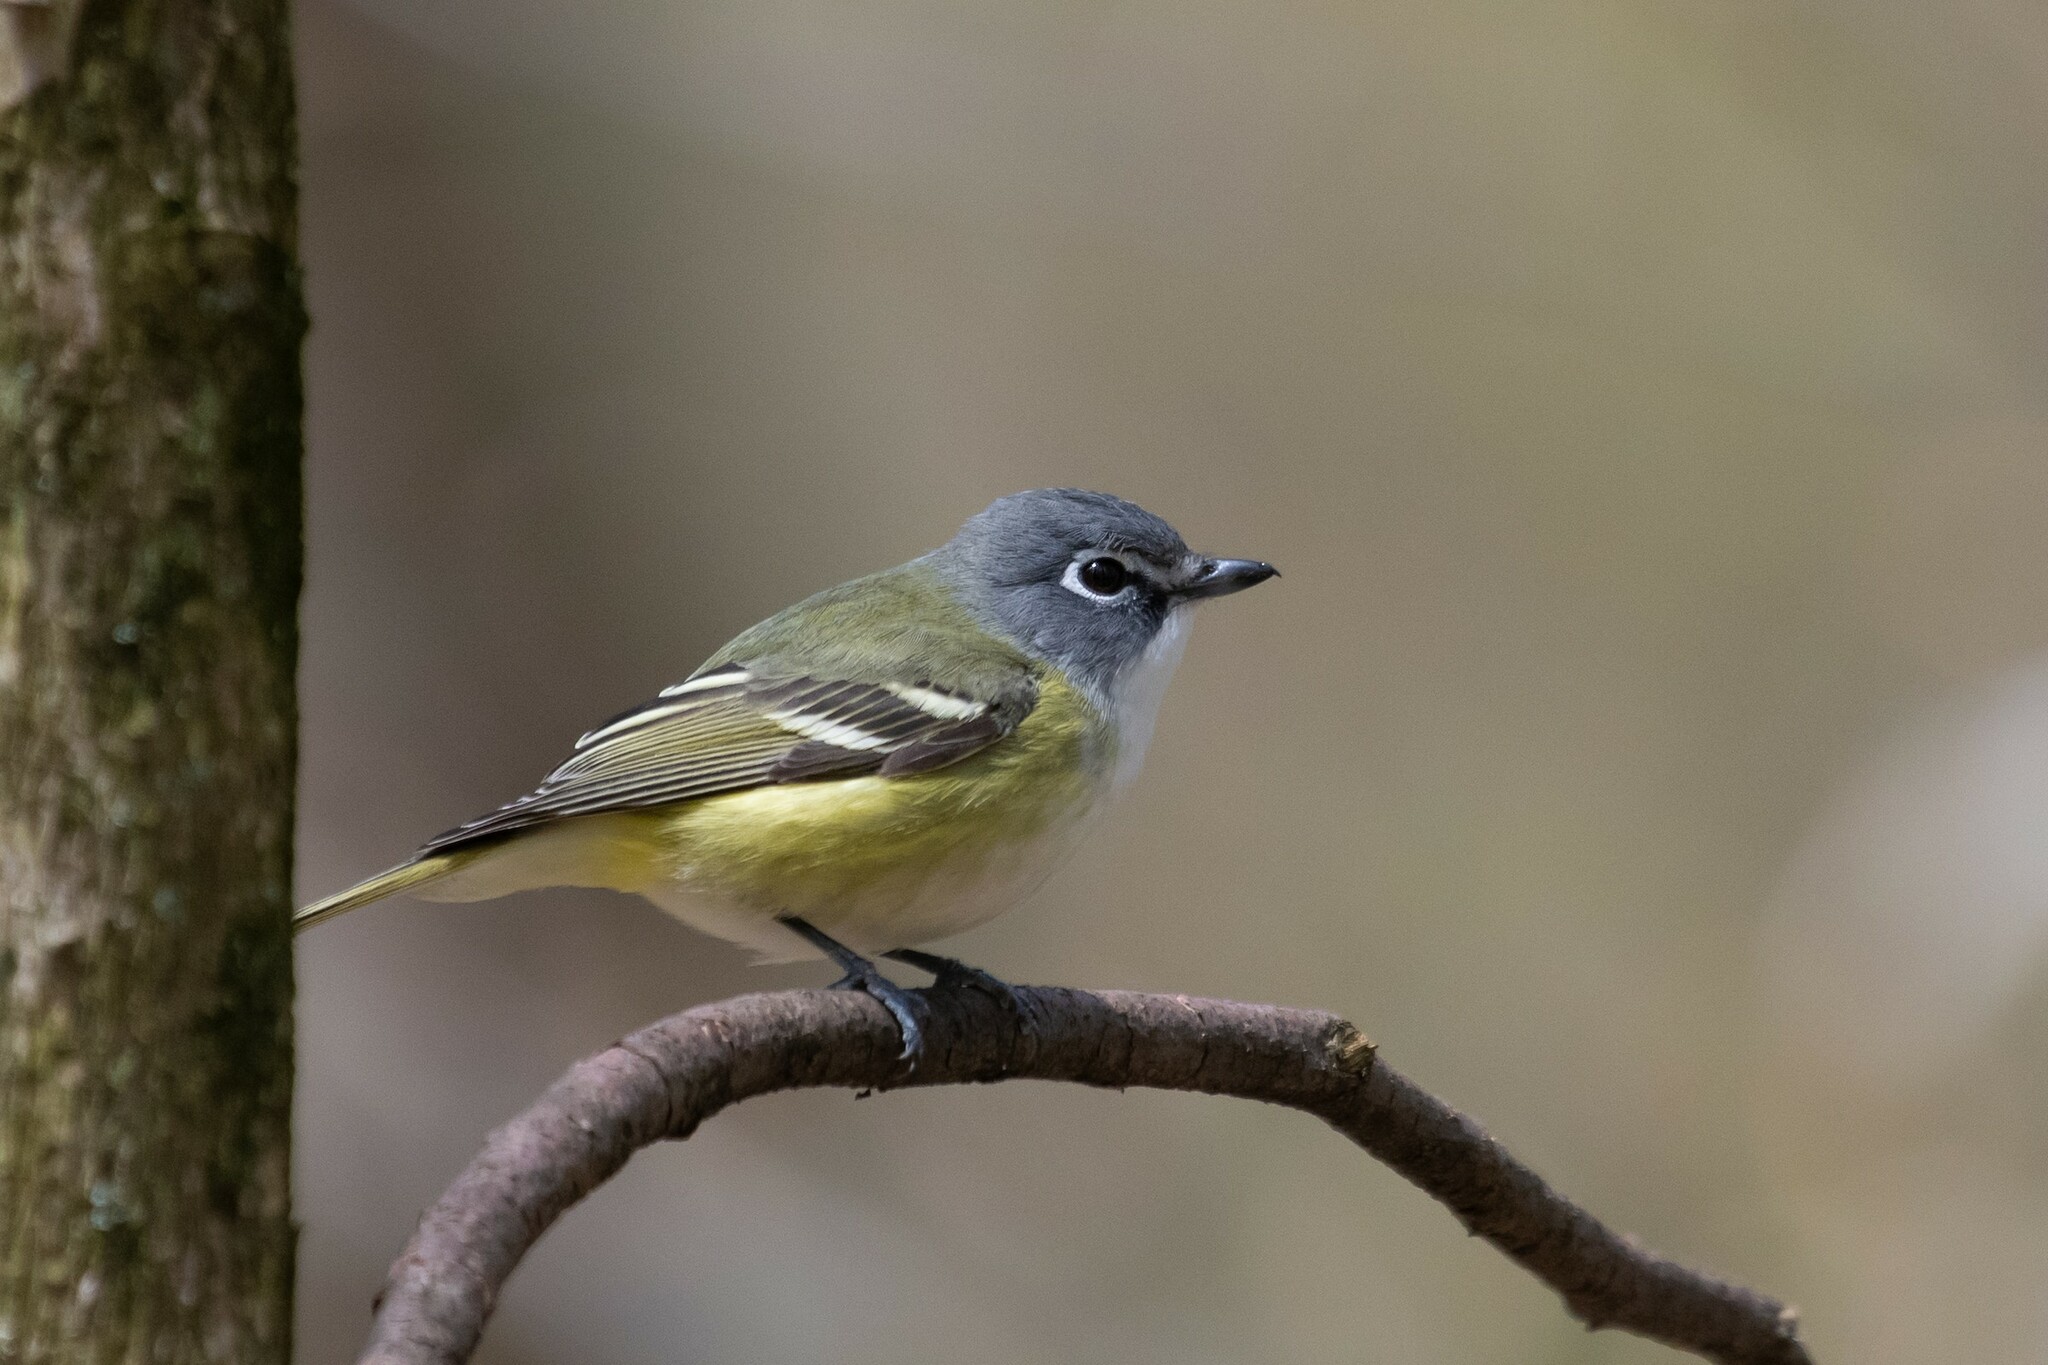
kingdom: Animalia
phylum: Chordata
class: Aves
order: Passeriformes
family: Vireonidae
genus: Vireo
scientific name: Vireo solitarius
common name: Blue-headed vireo
